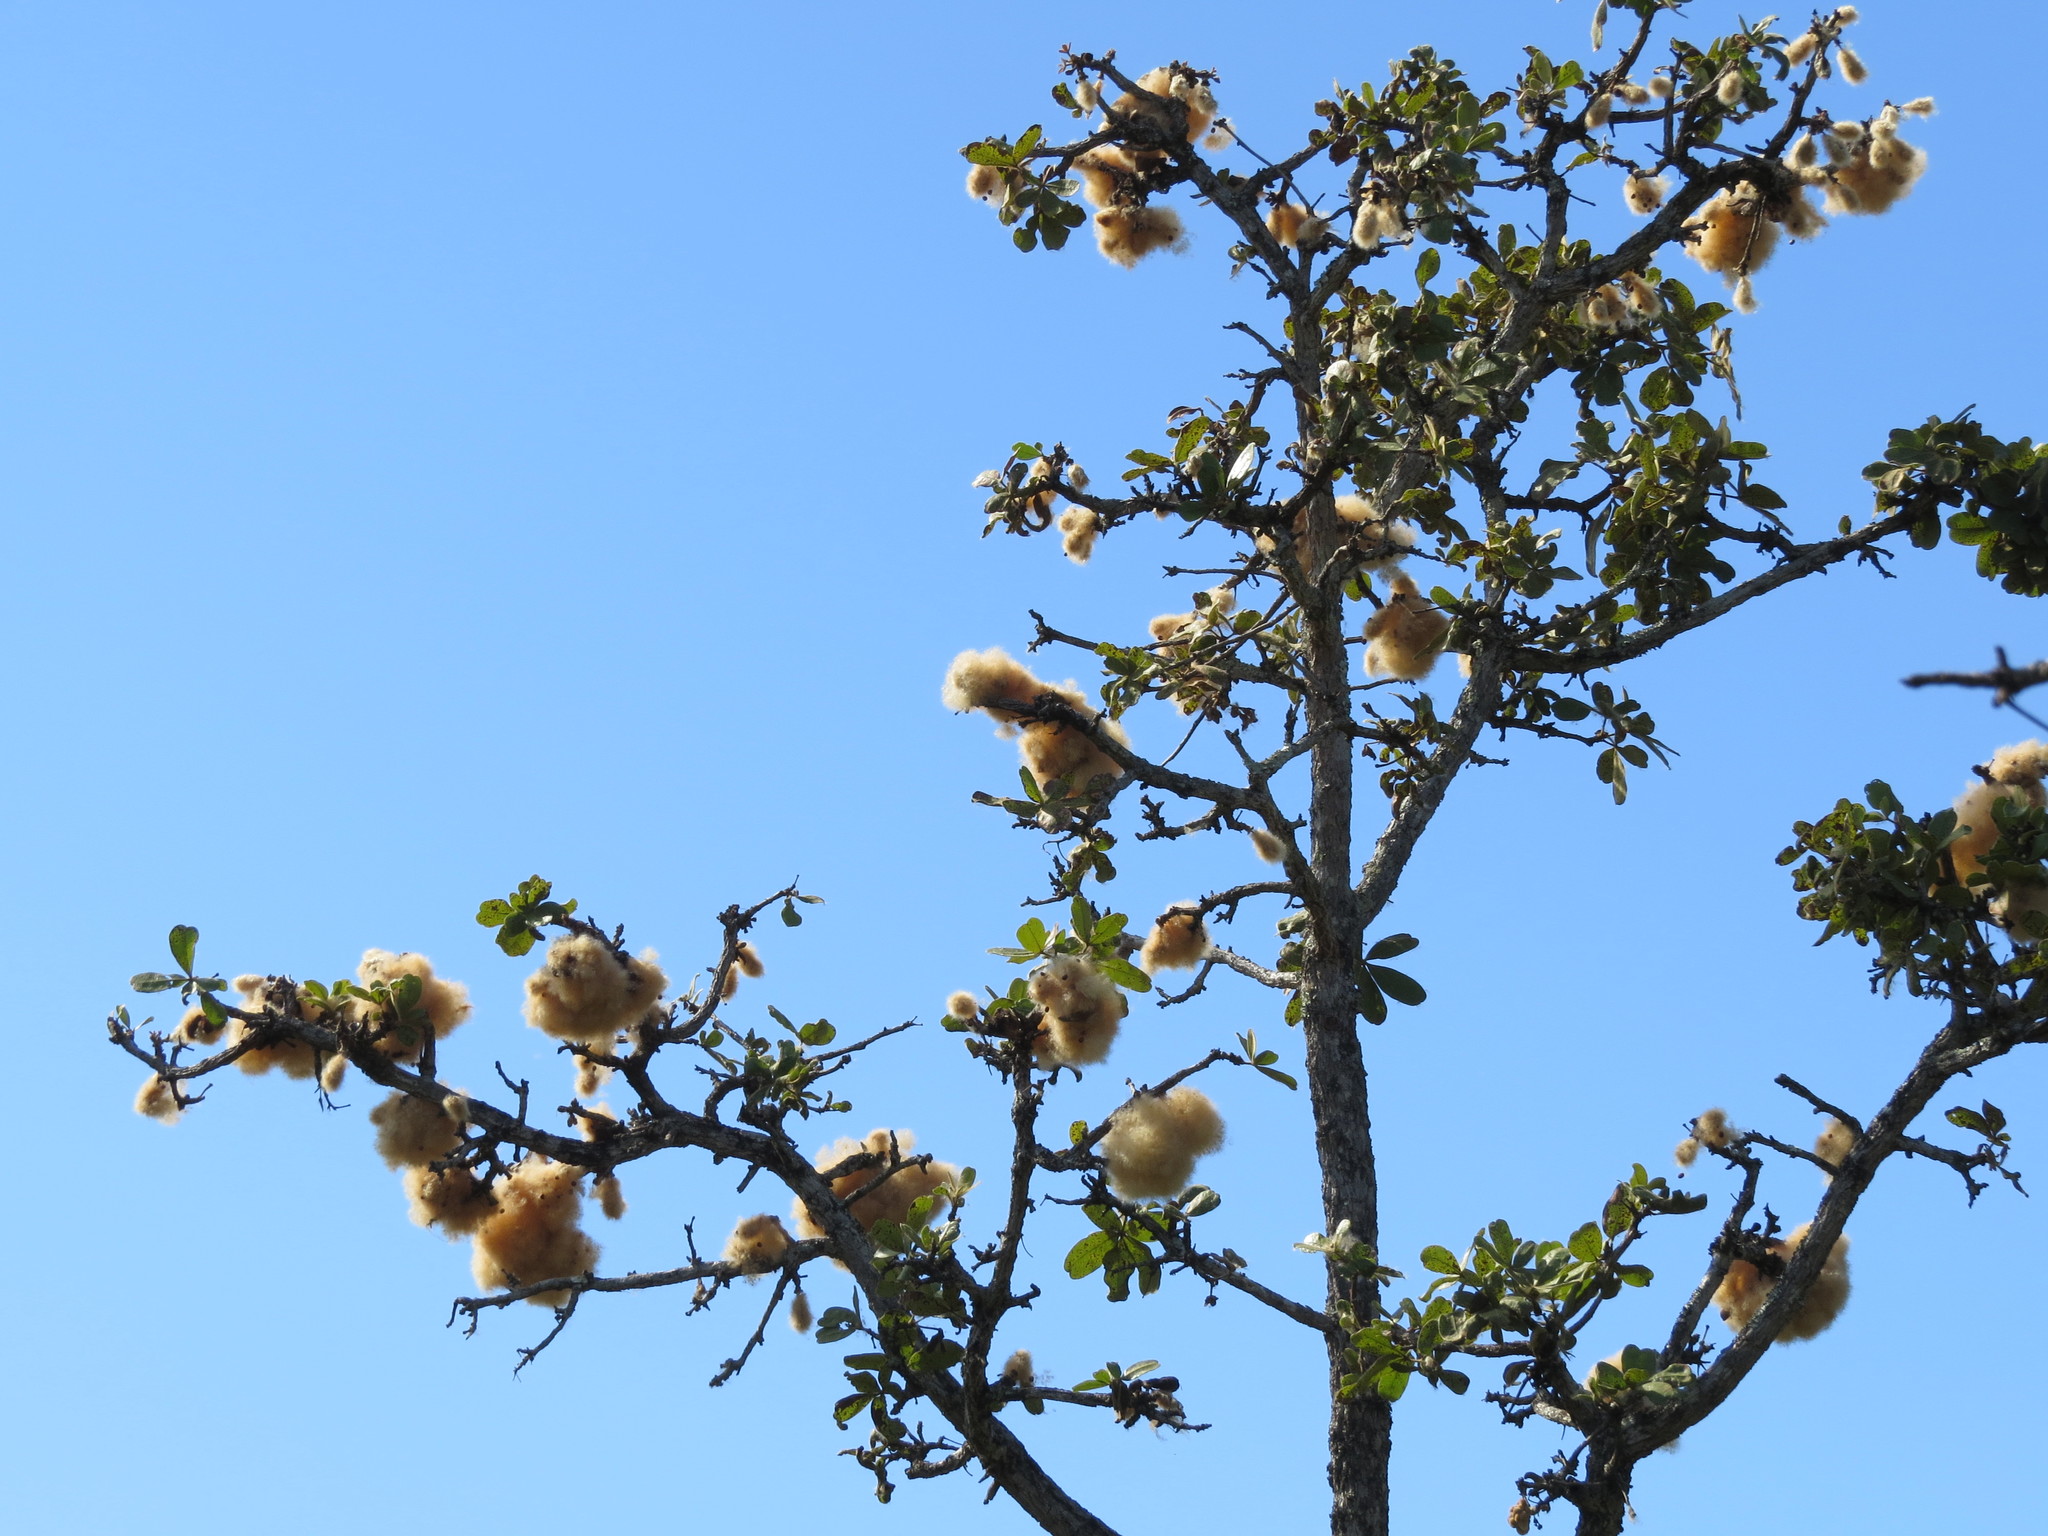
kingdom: Plantae
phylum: Tracheophyta
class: Magnoliopsida
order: Malvales
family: Malvaceae
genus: Eriotheca
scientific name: Eriotheca pubescens
